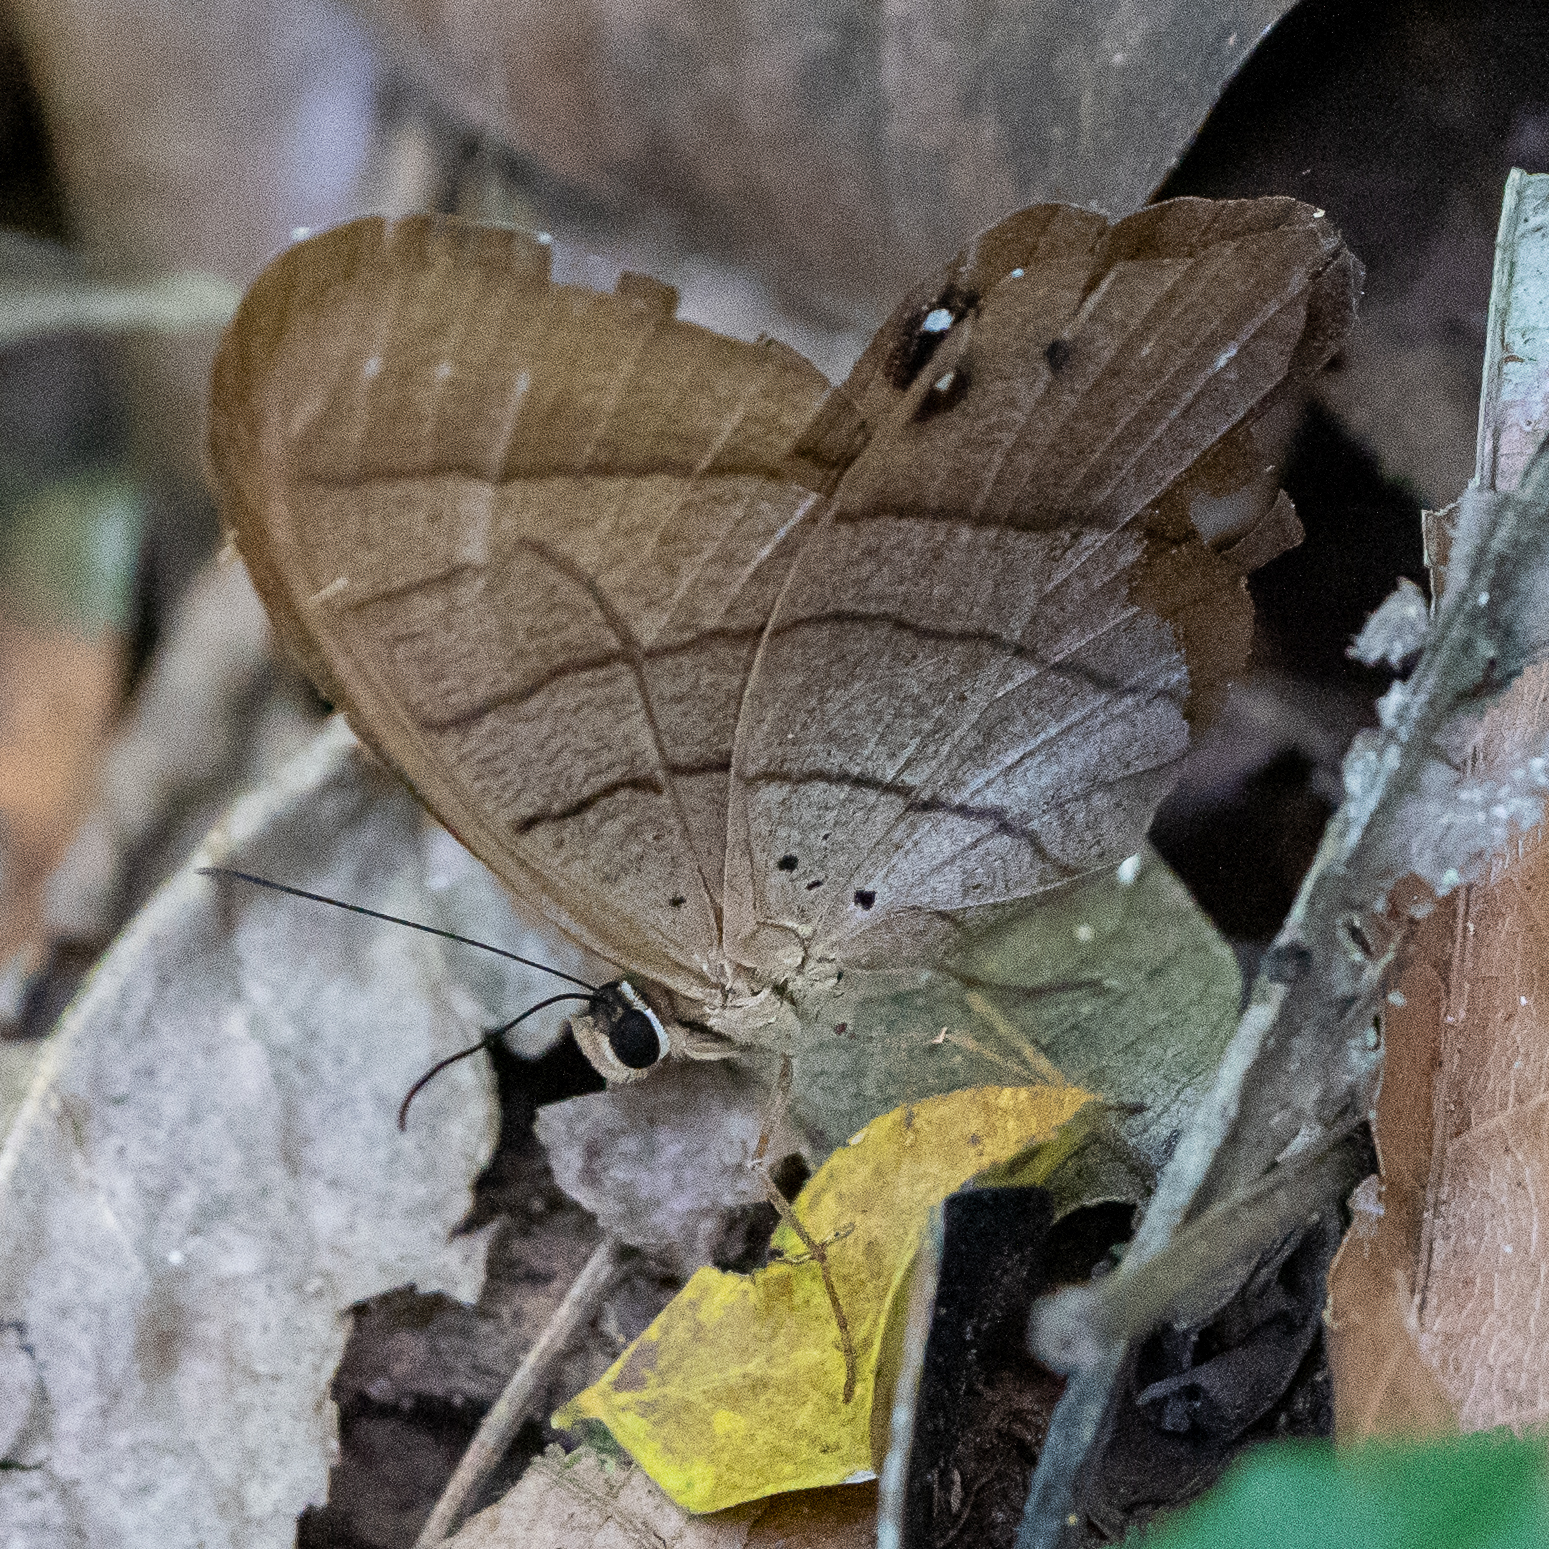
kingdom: Animalia
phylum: Arthropoda
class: Insecta
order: Lepidoptera
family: Nymphalidae
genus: Pierella
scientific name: Pierella luna
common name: Moon satyr
